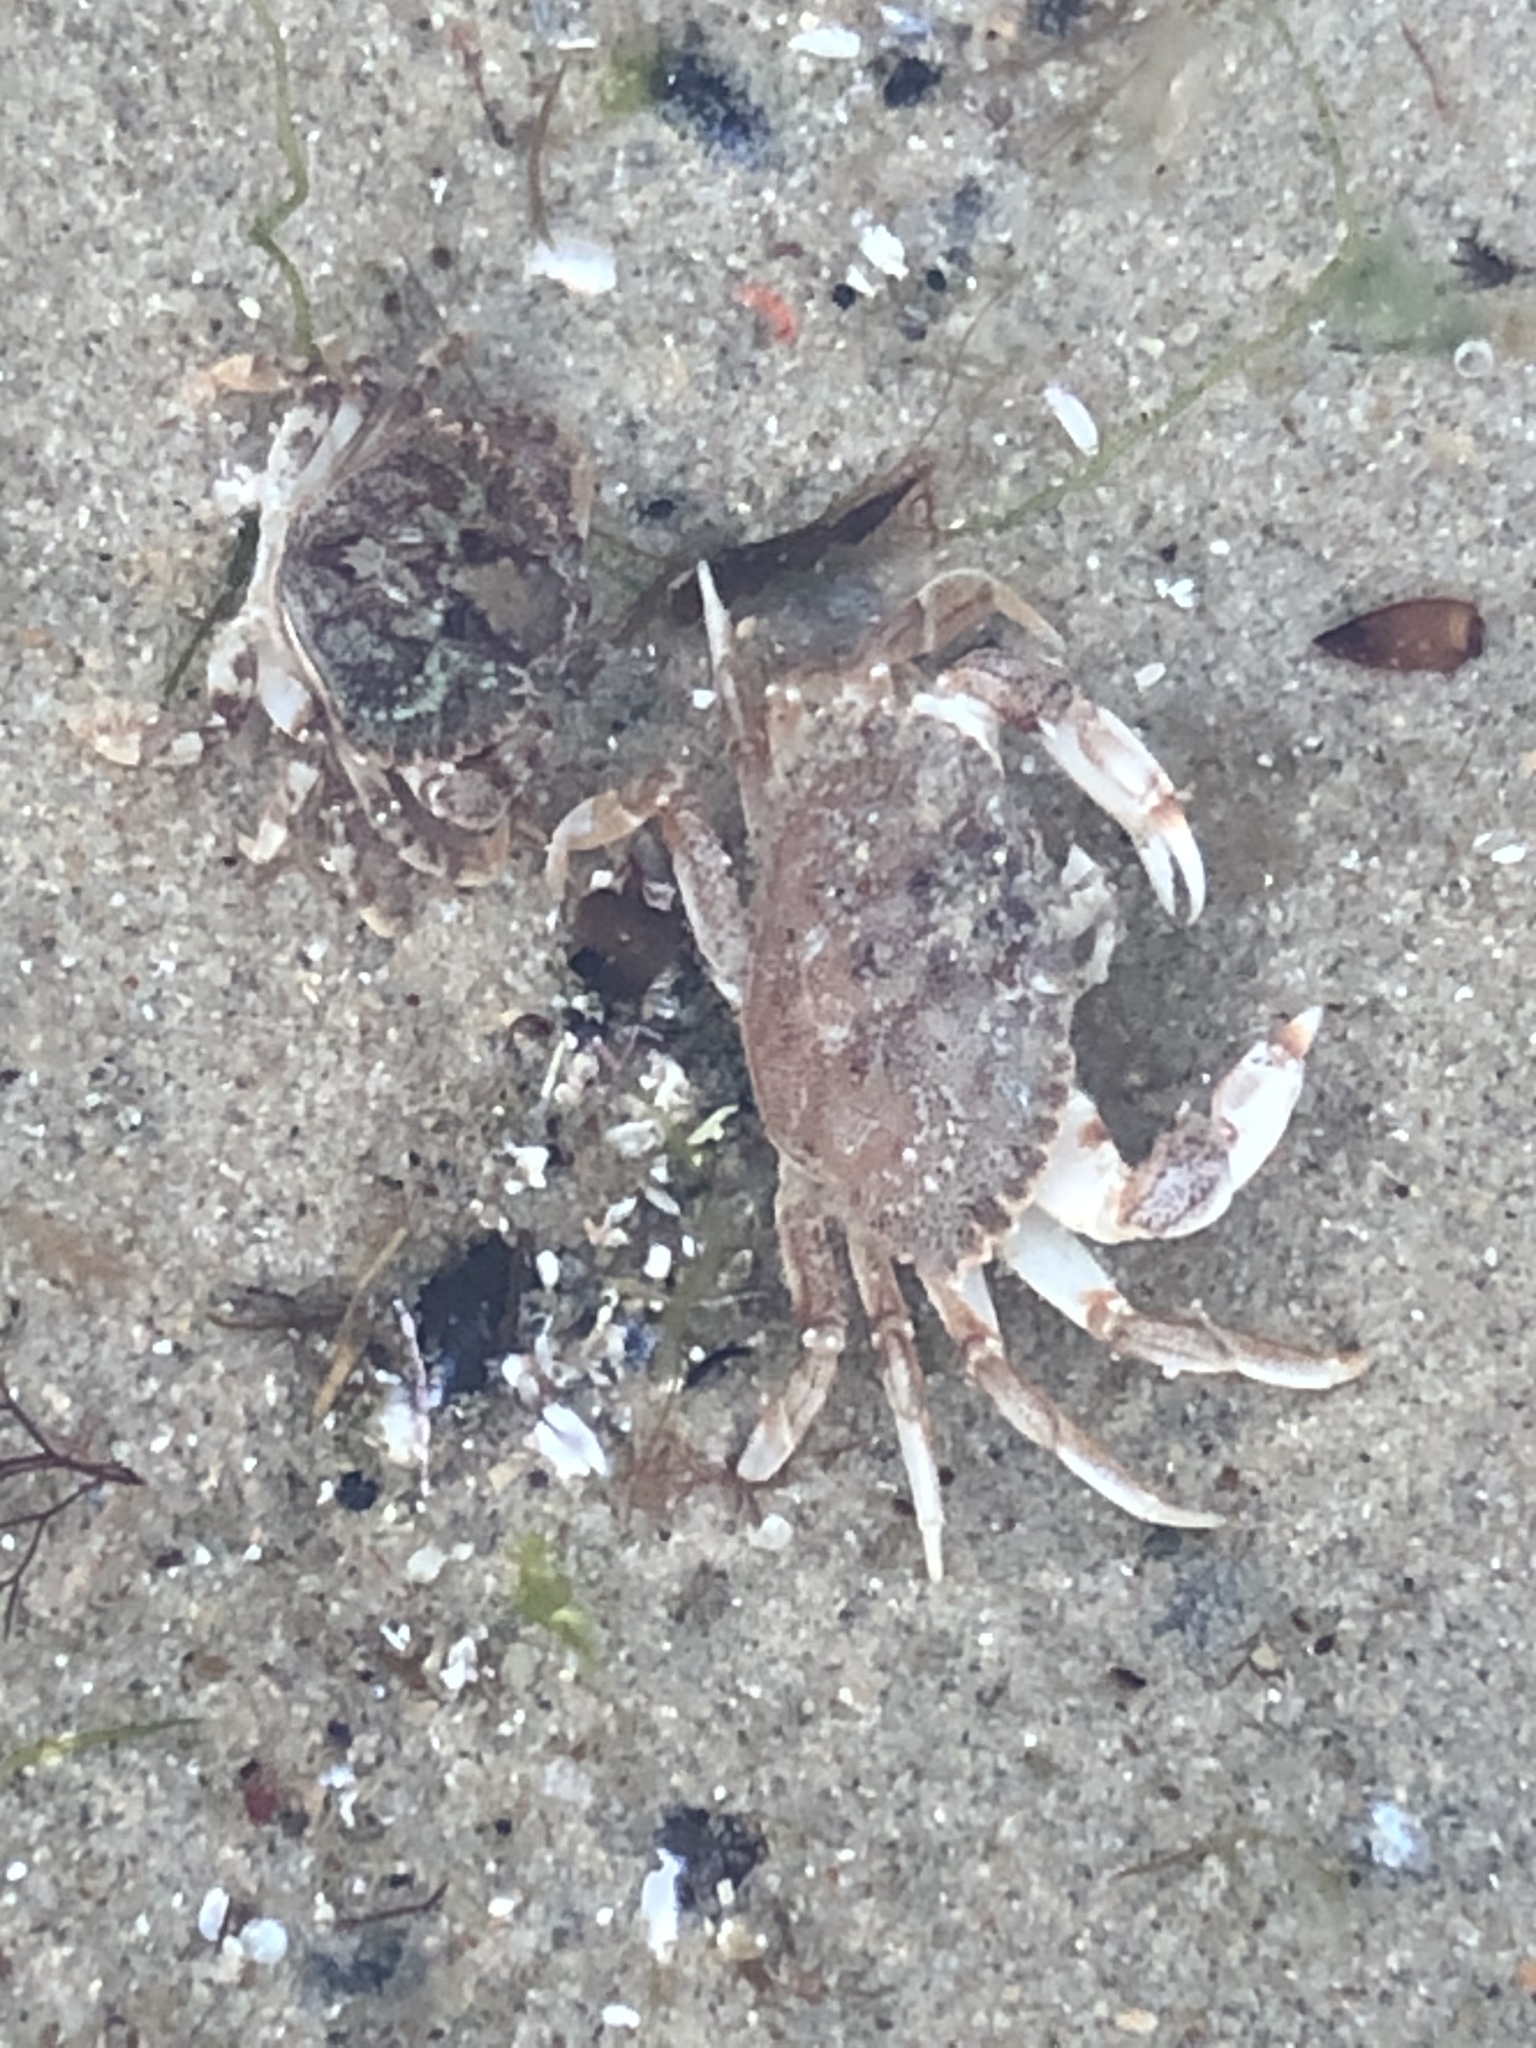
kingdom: Animalia
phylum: Arthropoda
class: Malacostraca
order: Decapoda
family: Cancridae
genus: Cancer
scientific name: Cancer irroratus
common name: Atlantic rock crab
